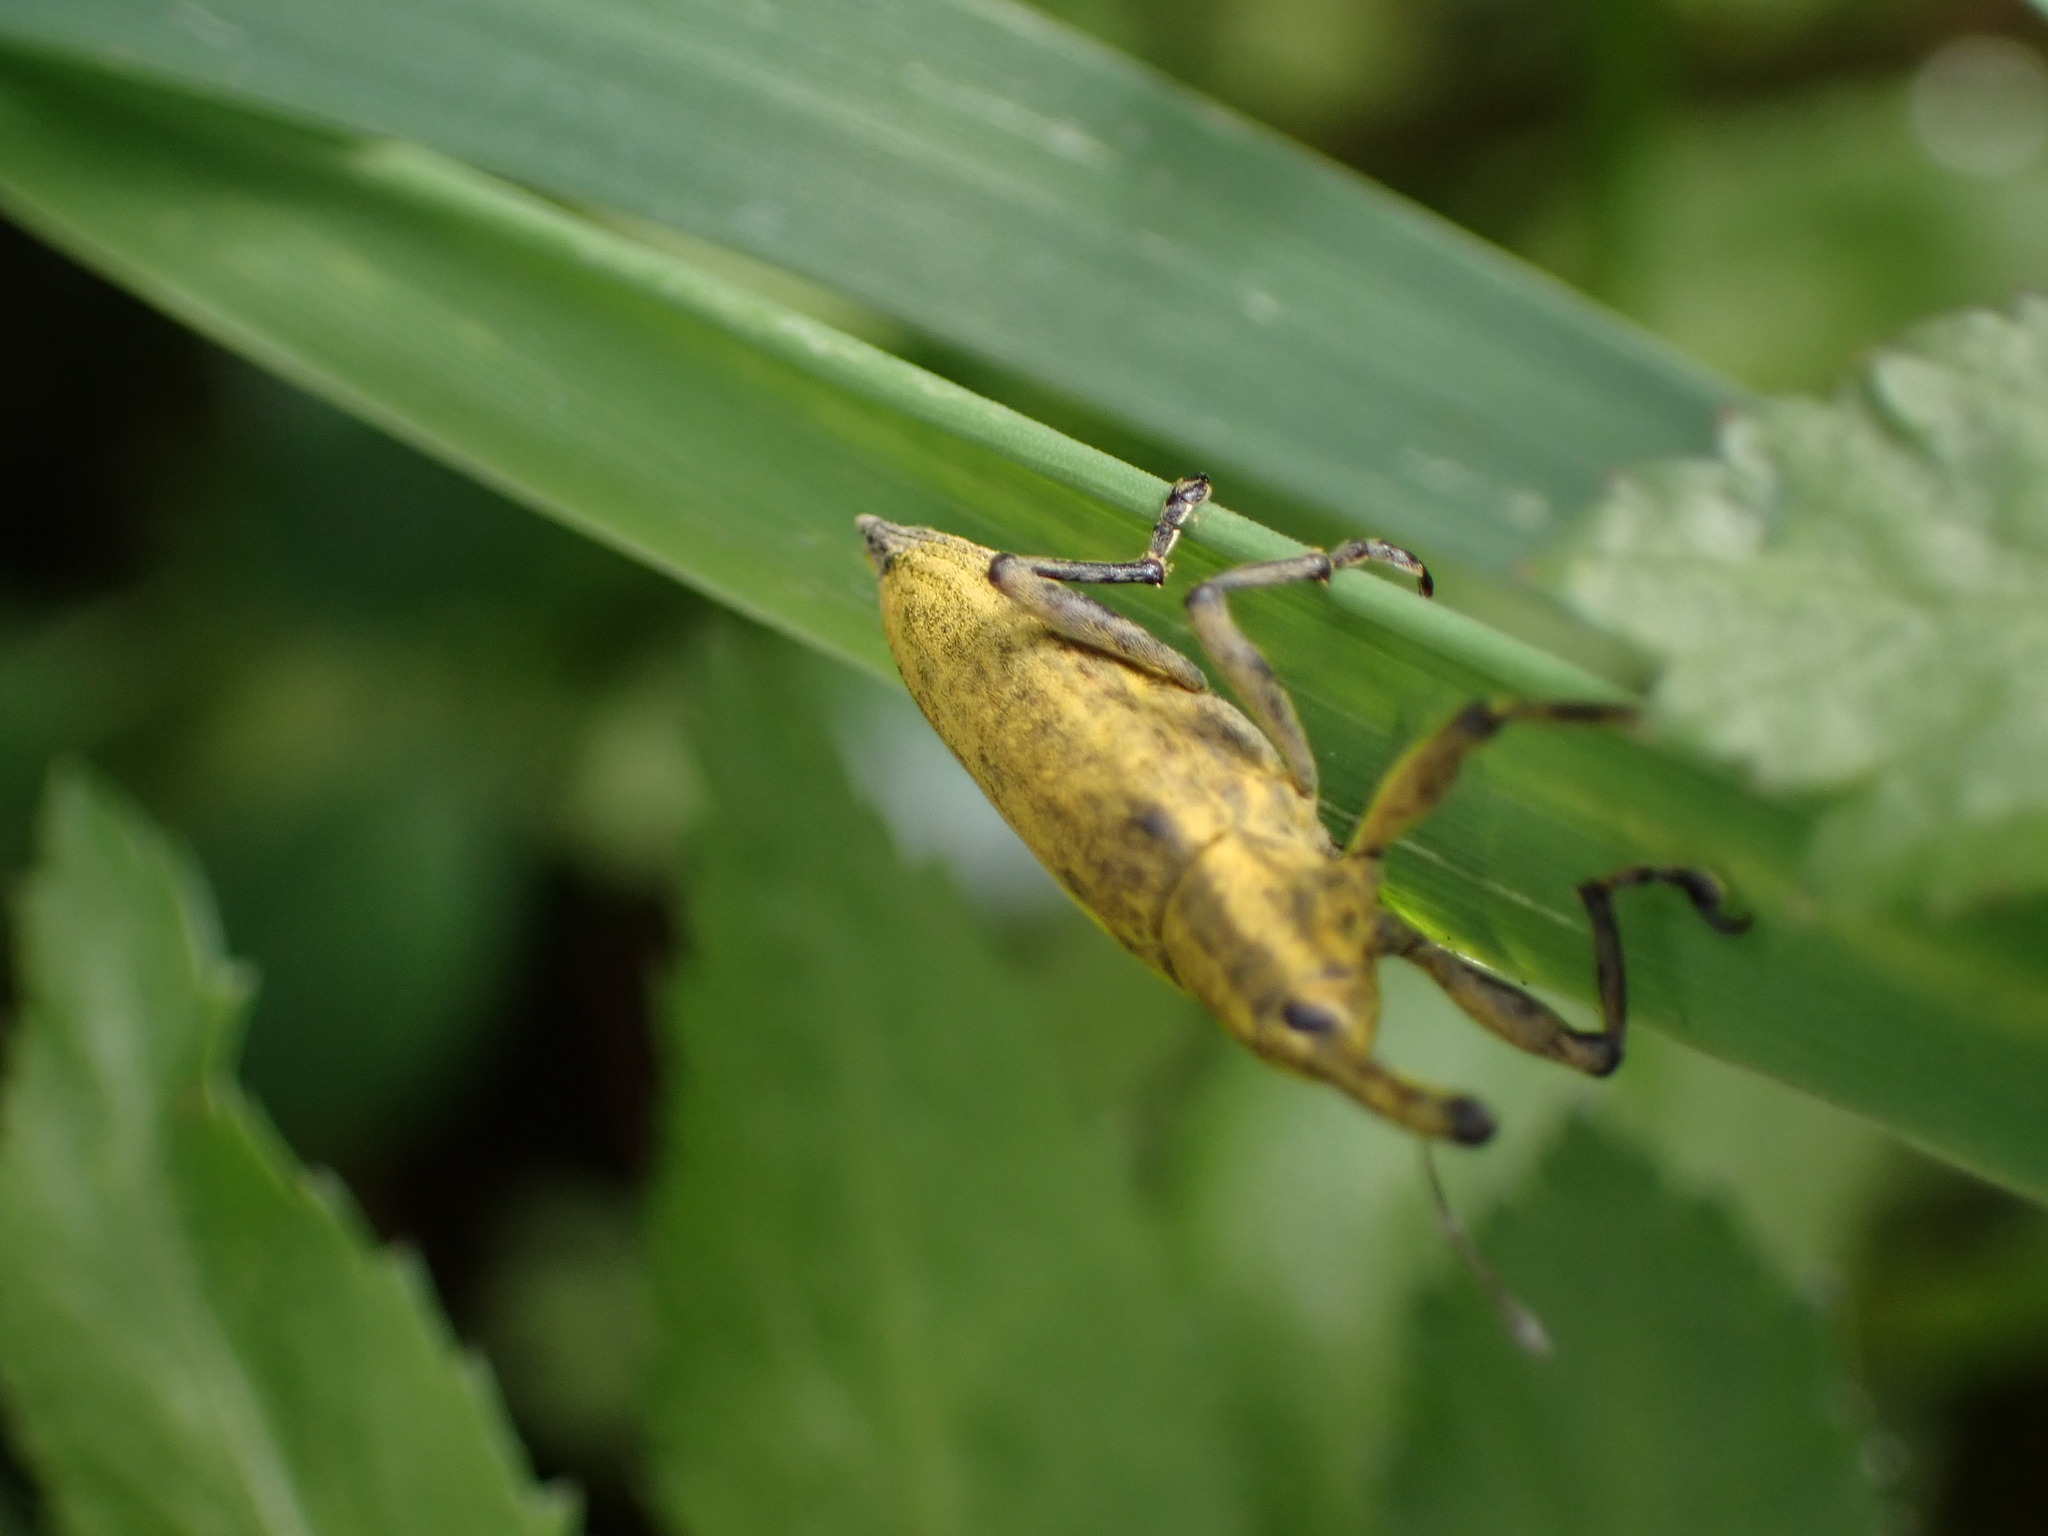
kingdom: Animalia
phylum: Arthropoda
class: Insecta
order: Coleoptera
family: Curculionidae
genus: Lixus
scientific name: Lixus iridis
